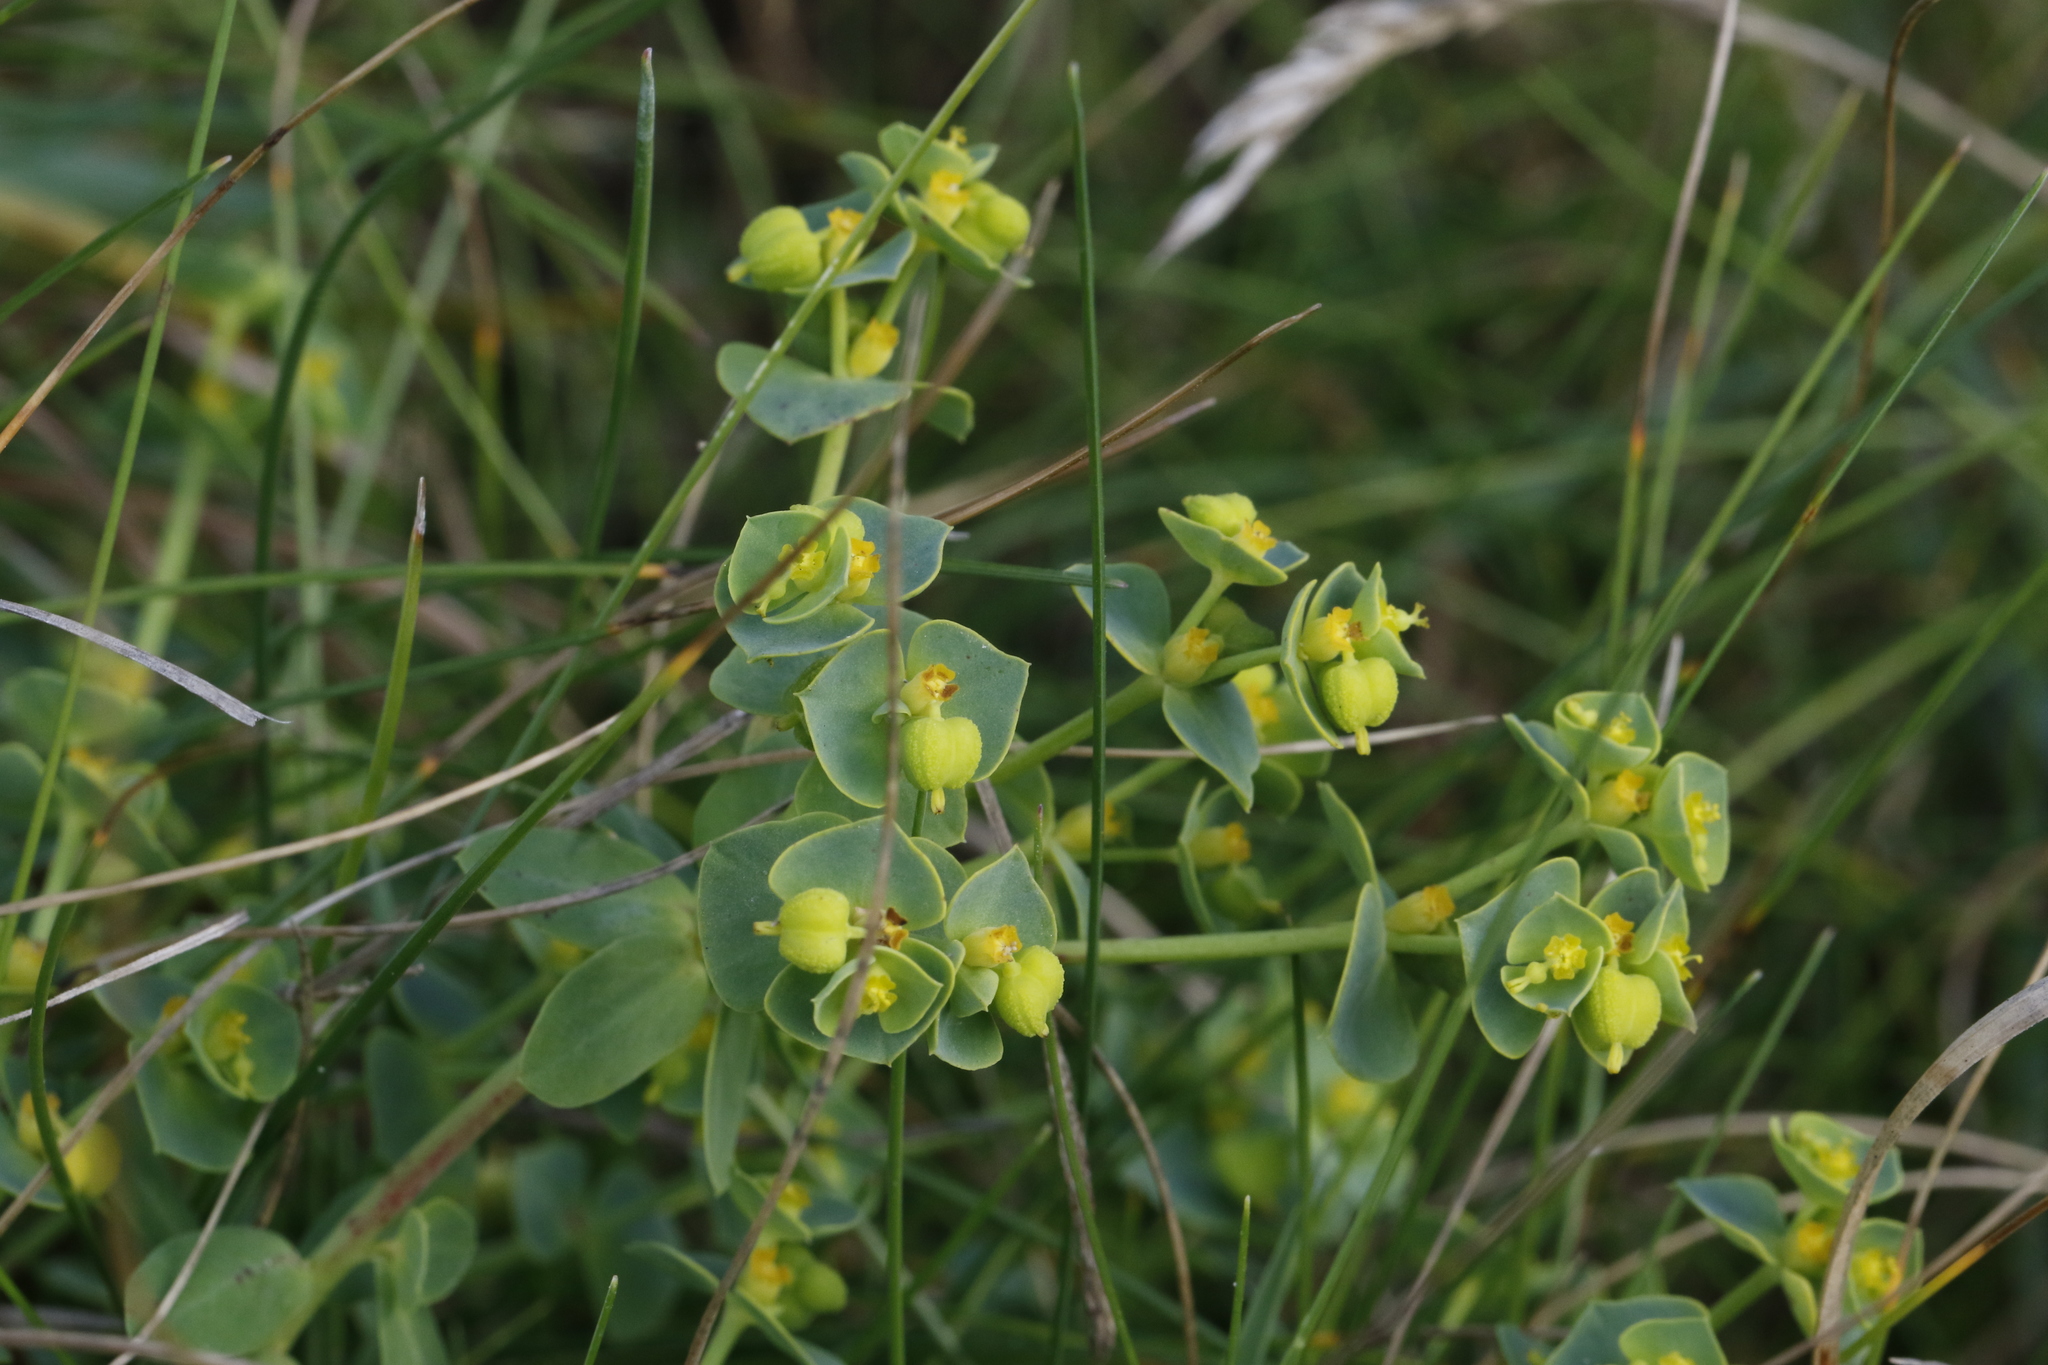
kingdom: Plantae
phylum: Tracheophyta
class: Magnoliopsida
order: Malpighiales
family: Euphorbiaceae
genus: Euphorbia
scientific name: Euphorbia paralias
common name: Sea spurge
